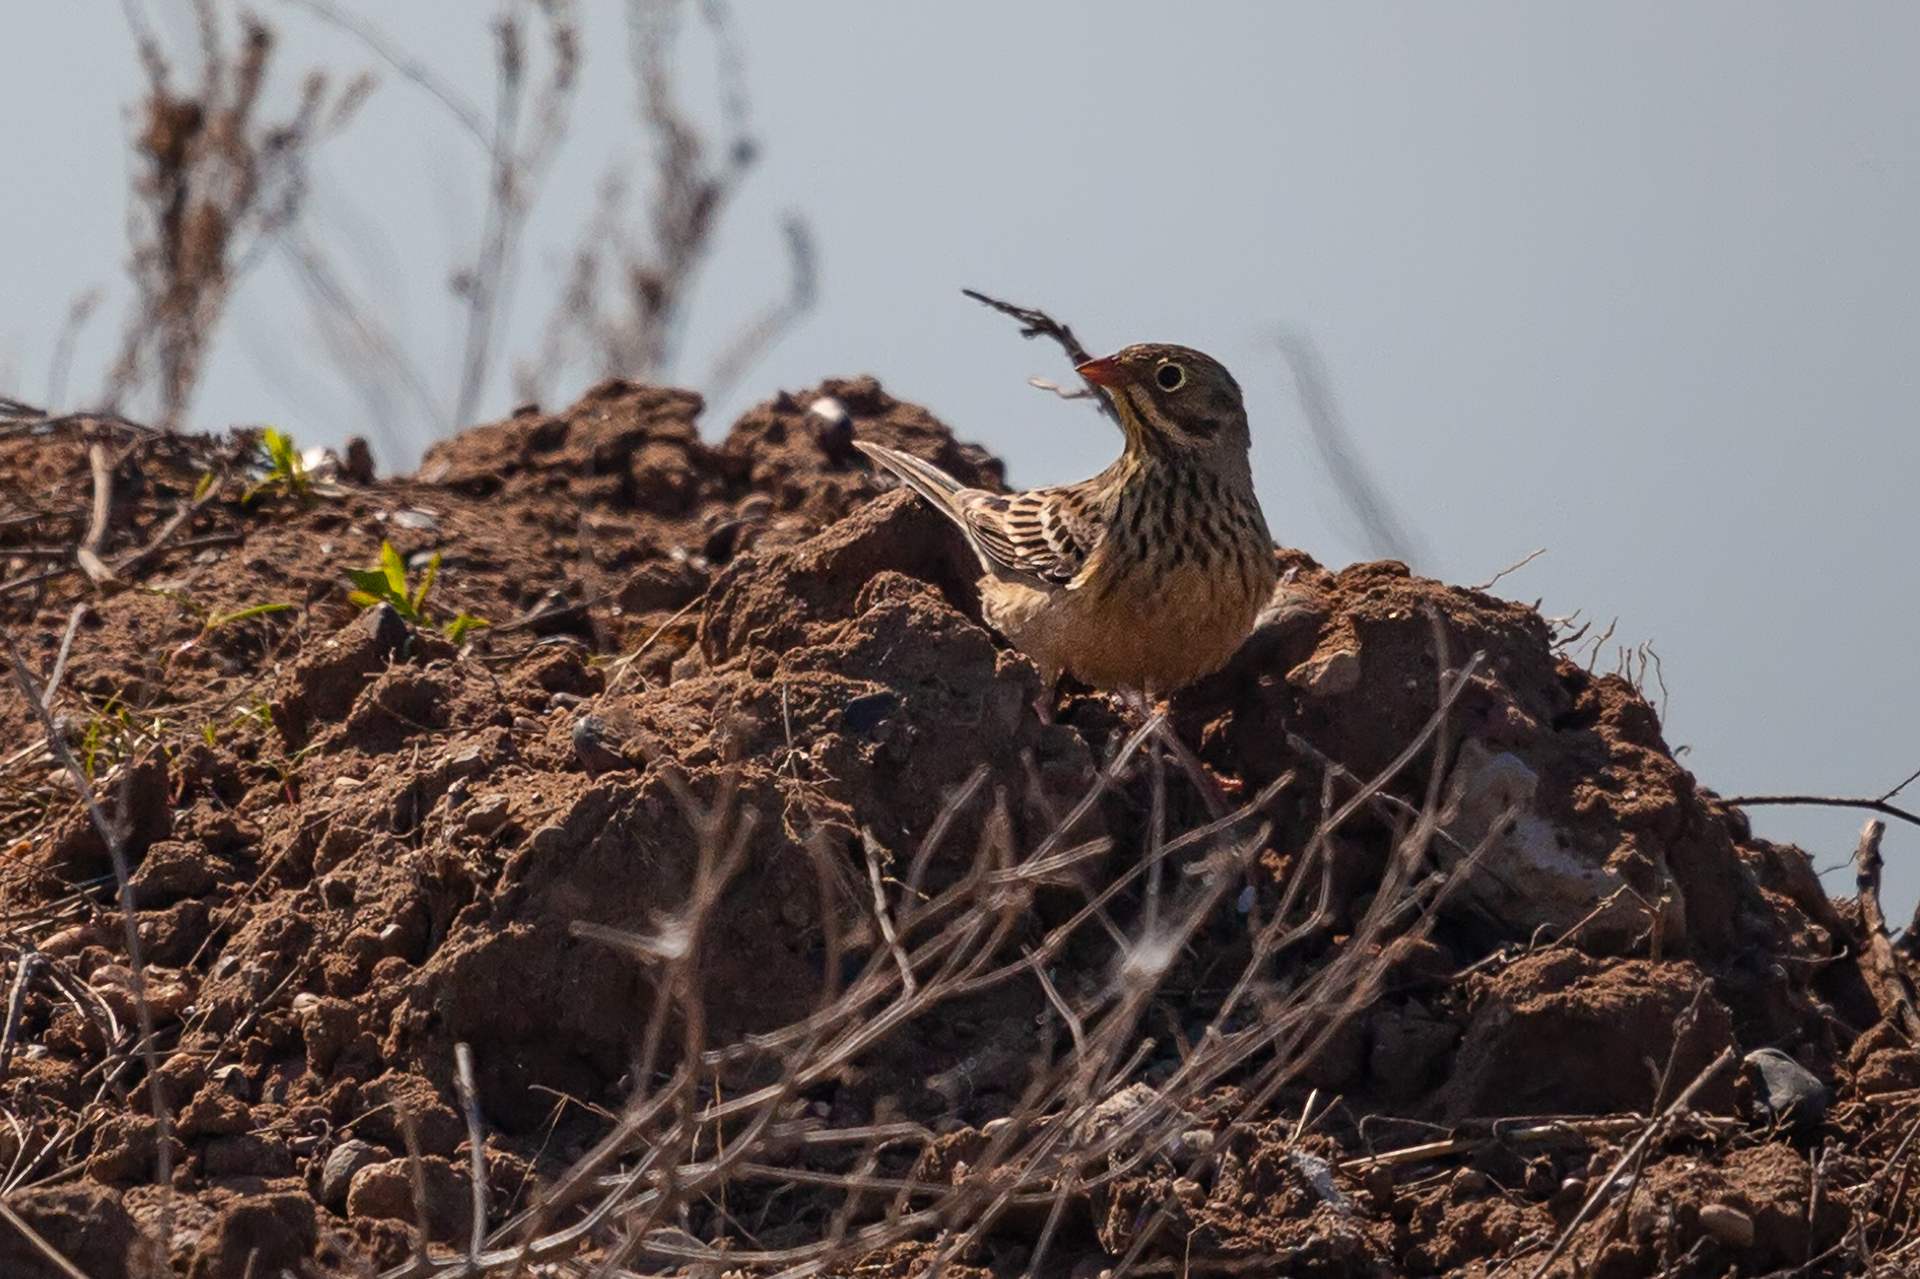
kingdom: Animalia
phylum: Chordata
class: Aves
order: Passeriformes
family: Emberizidae
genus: Emberiza
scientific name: Emberiza hortulana
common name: Ortolan bunting
